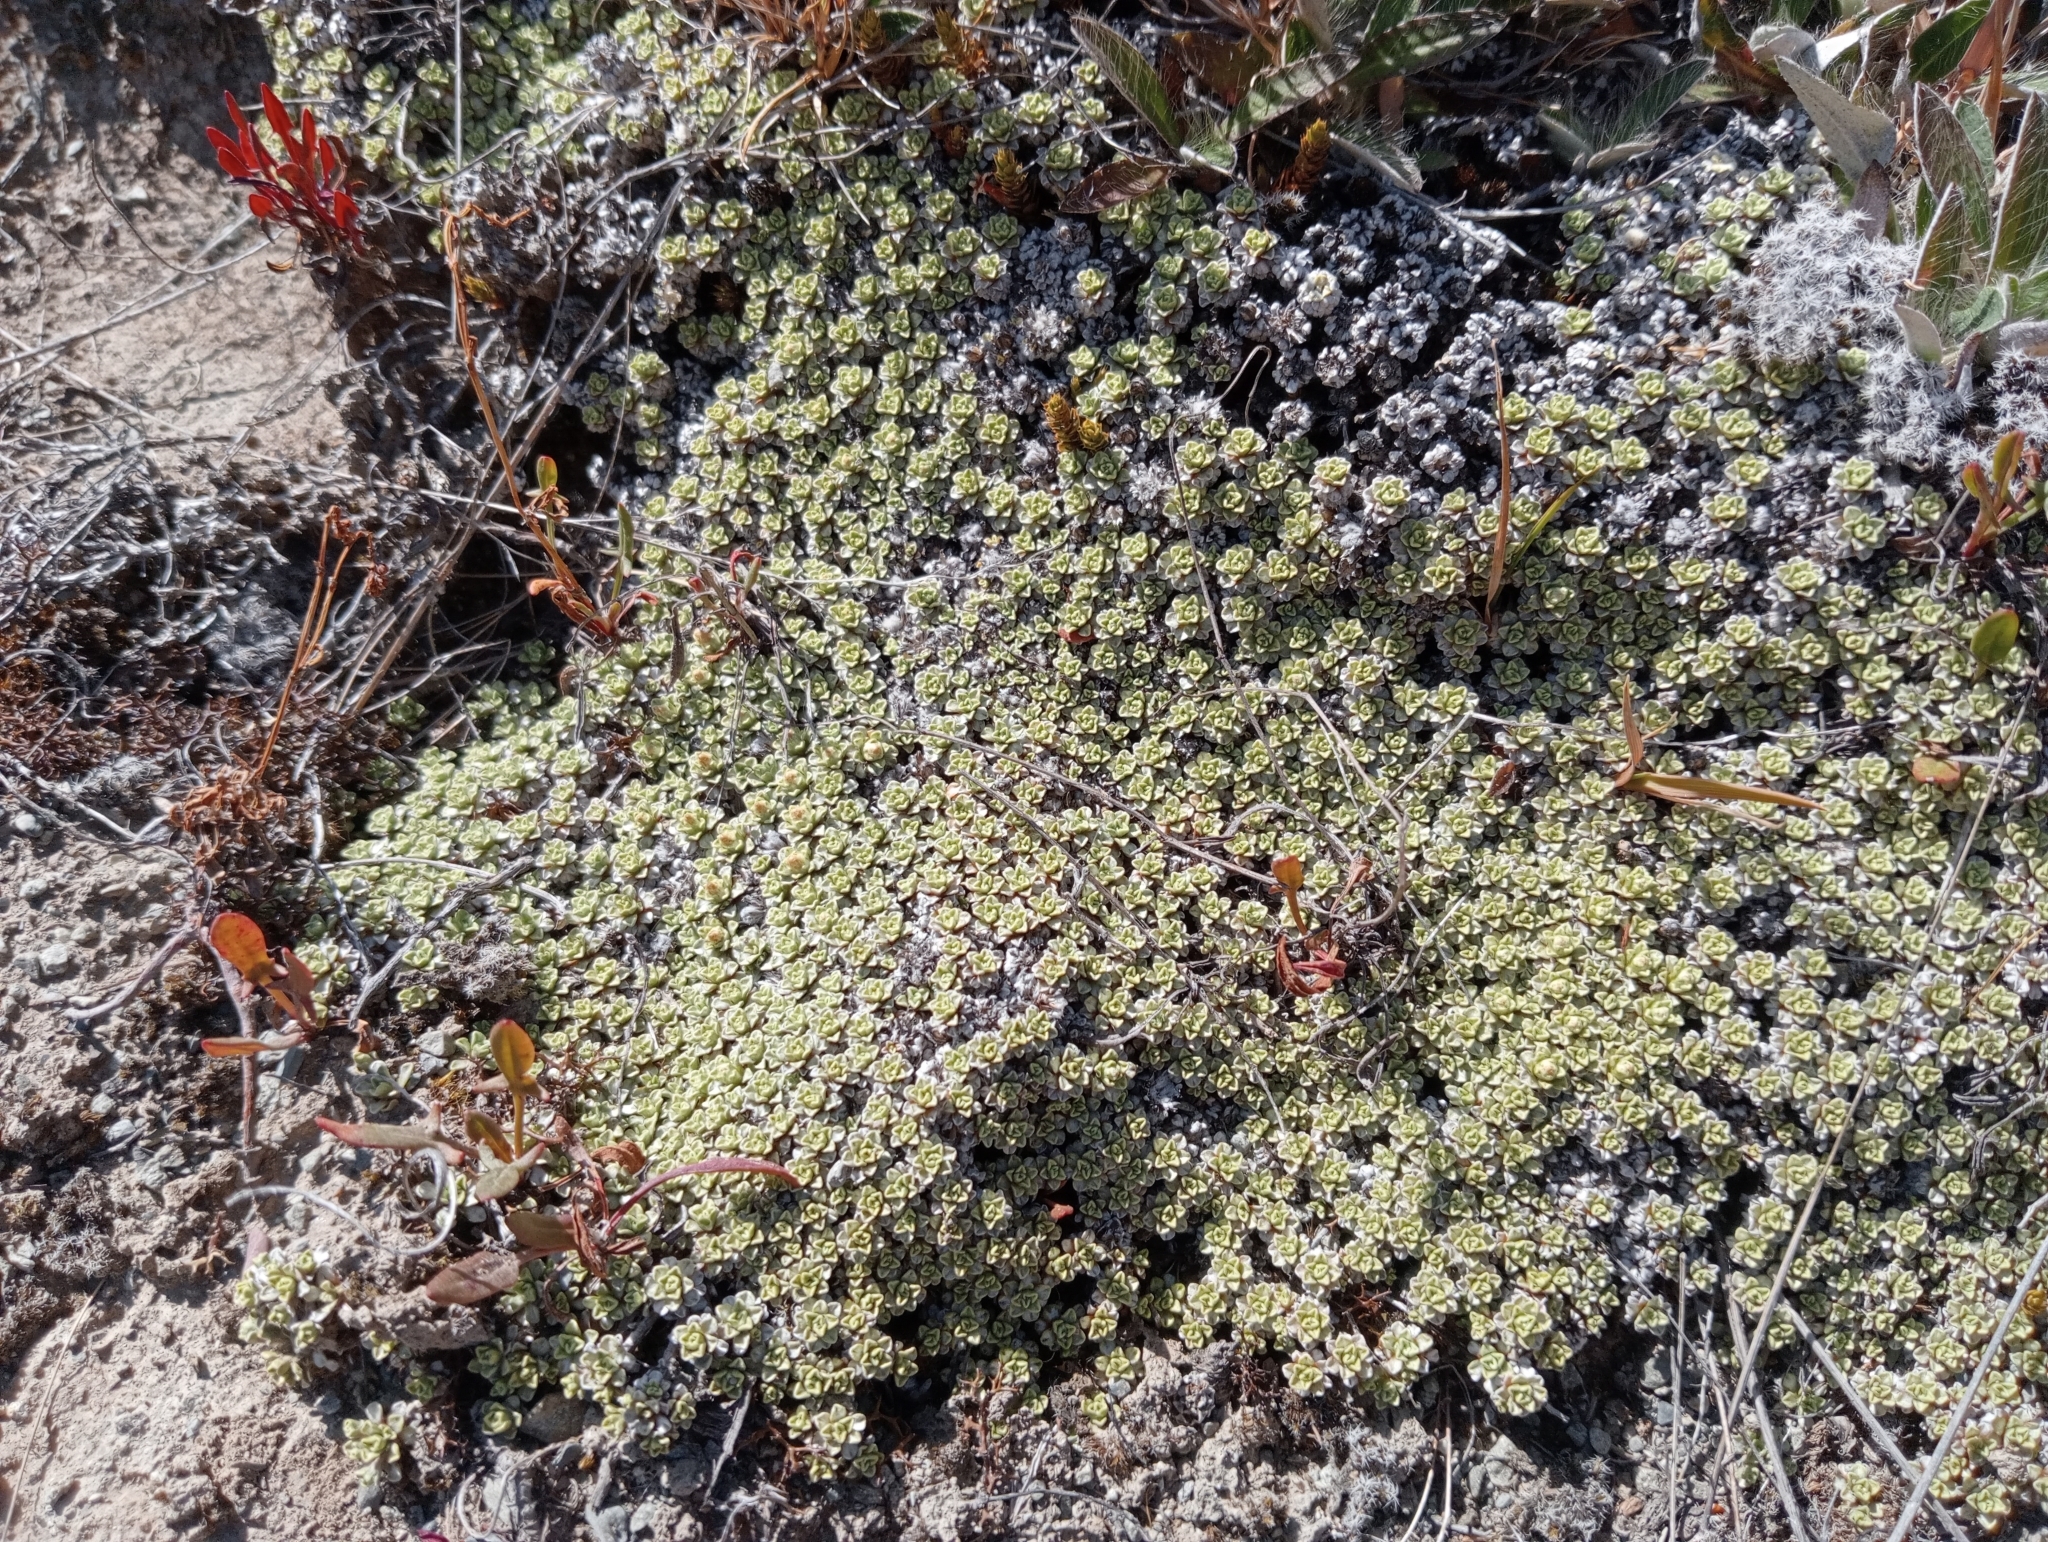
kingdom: Plantae
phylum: Tracheophyta
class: Magnoliopsida
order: Asterales
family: Asteraceae
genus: Raoulia
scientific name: Raoulia parkii
